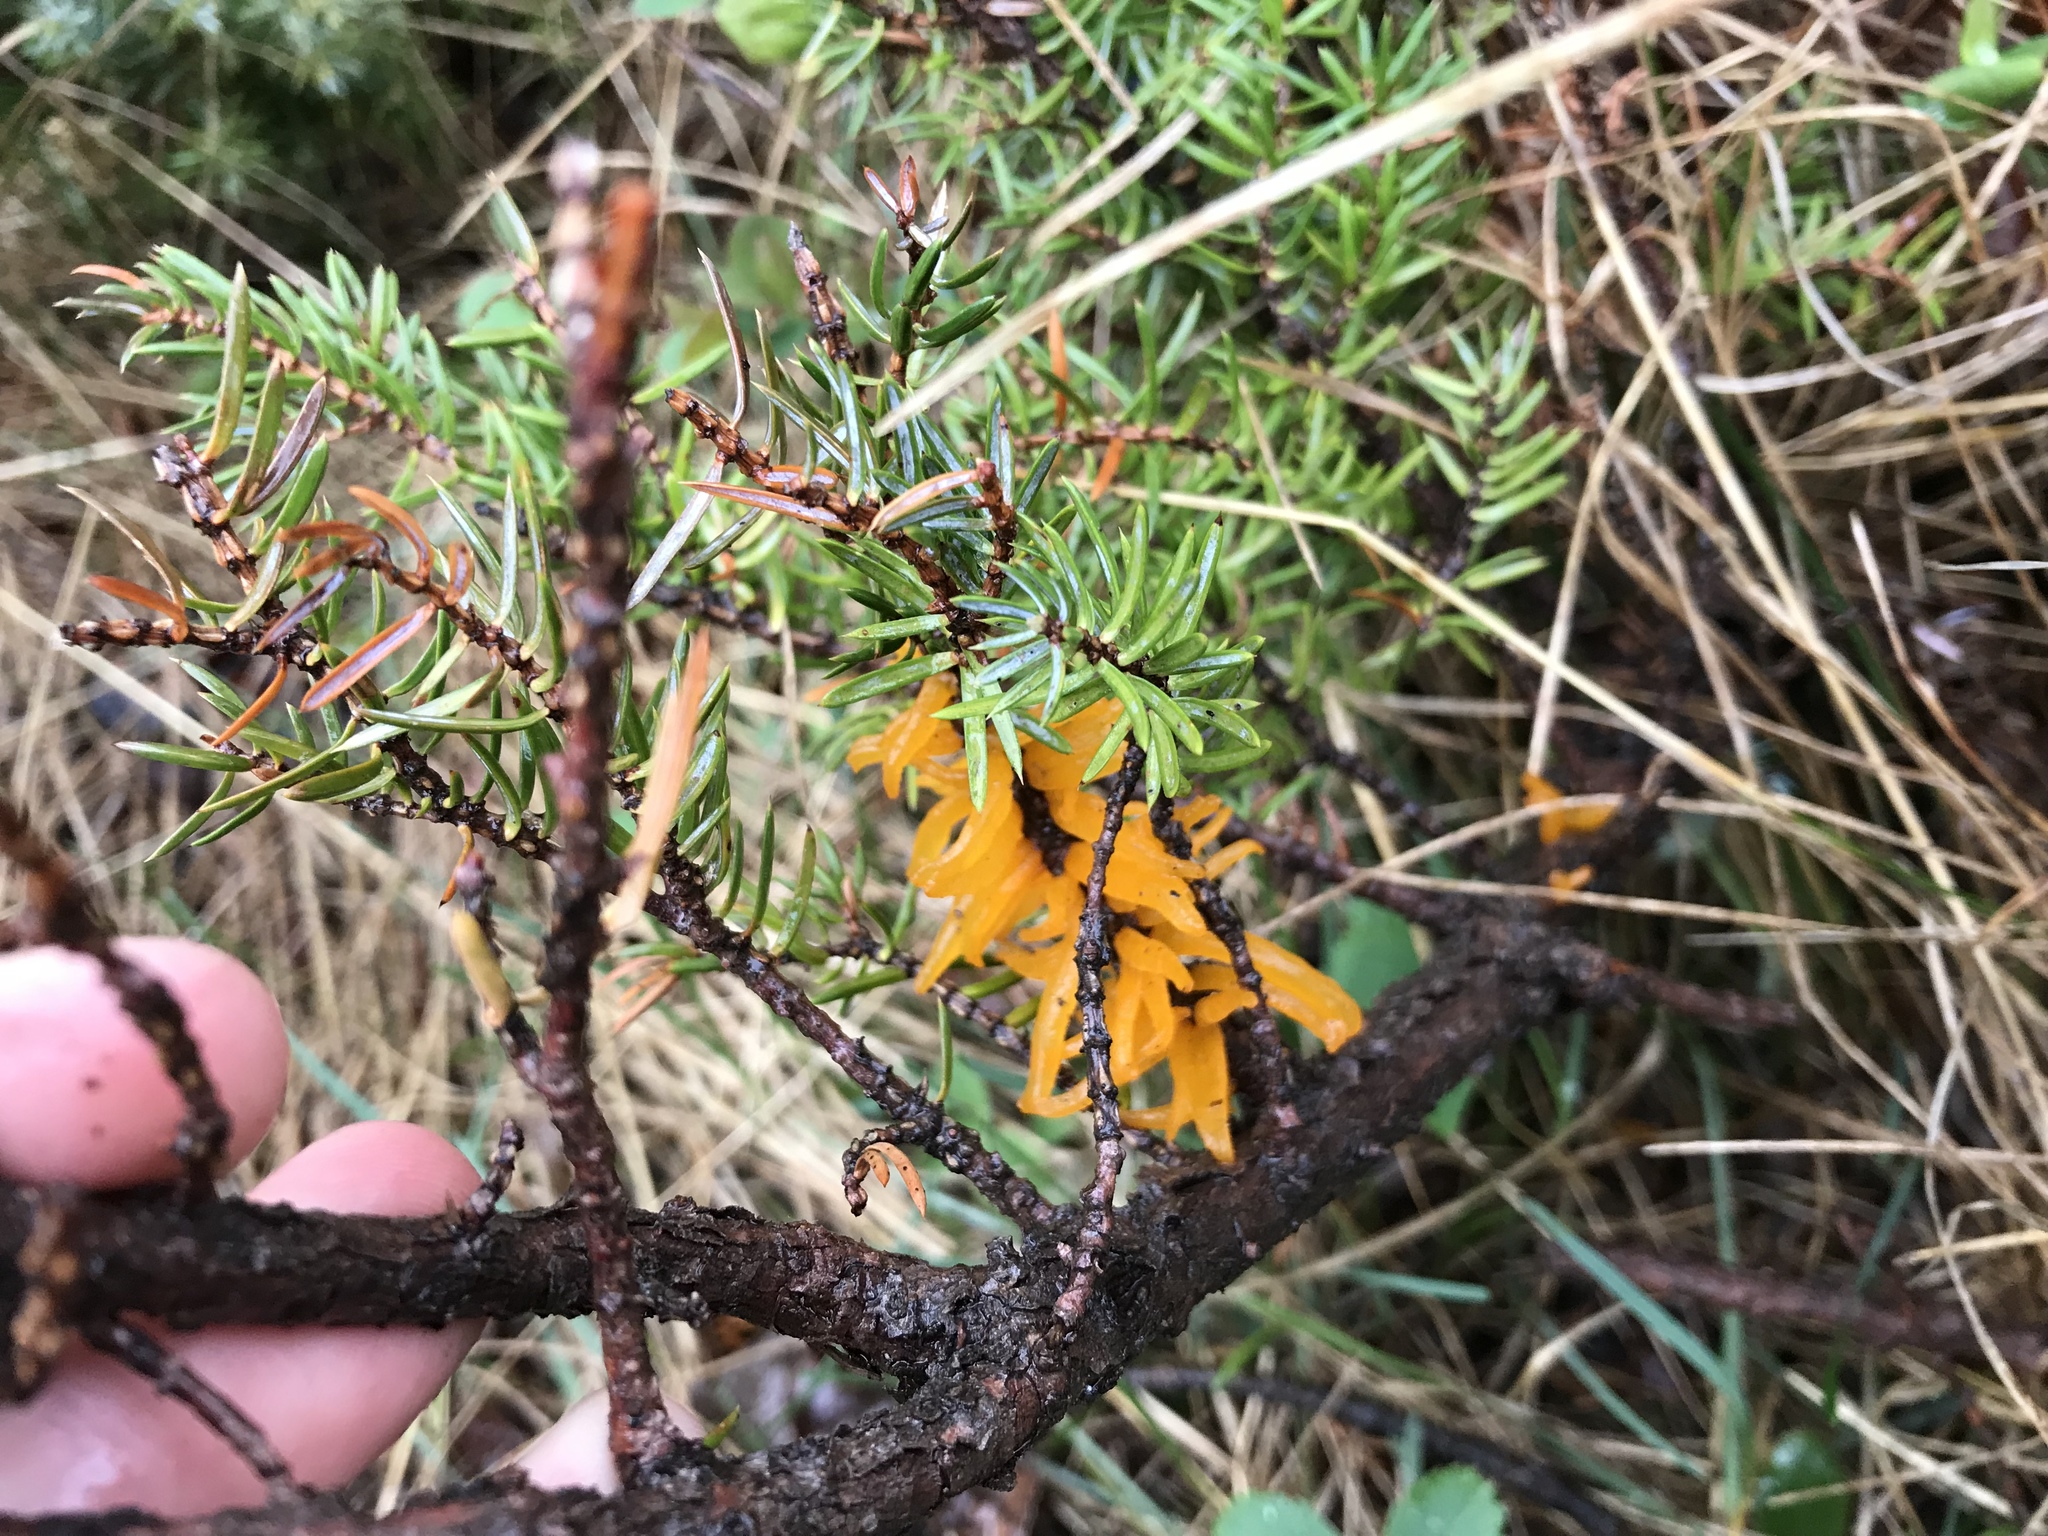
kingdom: Fungi
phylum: Basidiomycota
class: Pucciniomycetes
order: Pucciniales
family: Gymnosporangiaceae
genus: Gymnosporangium
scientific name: Gymnosporangium juniperi-virginianae
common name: Juniper-apple rust
